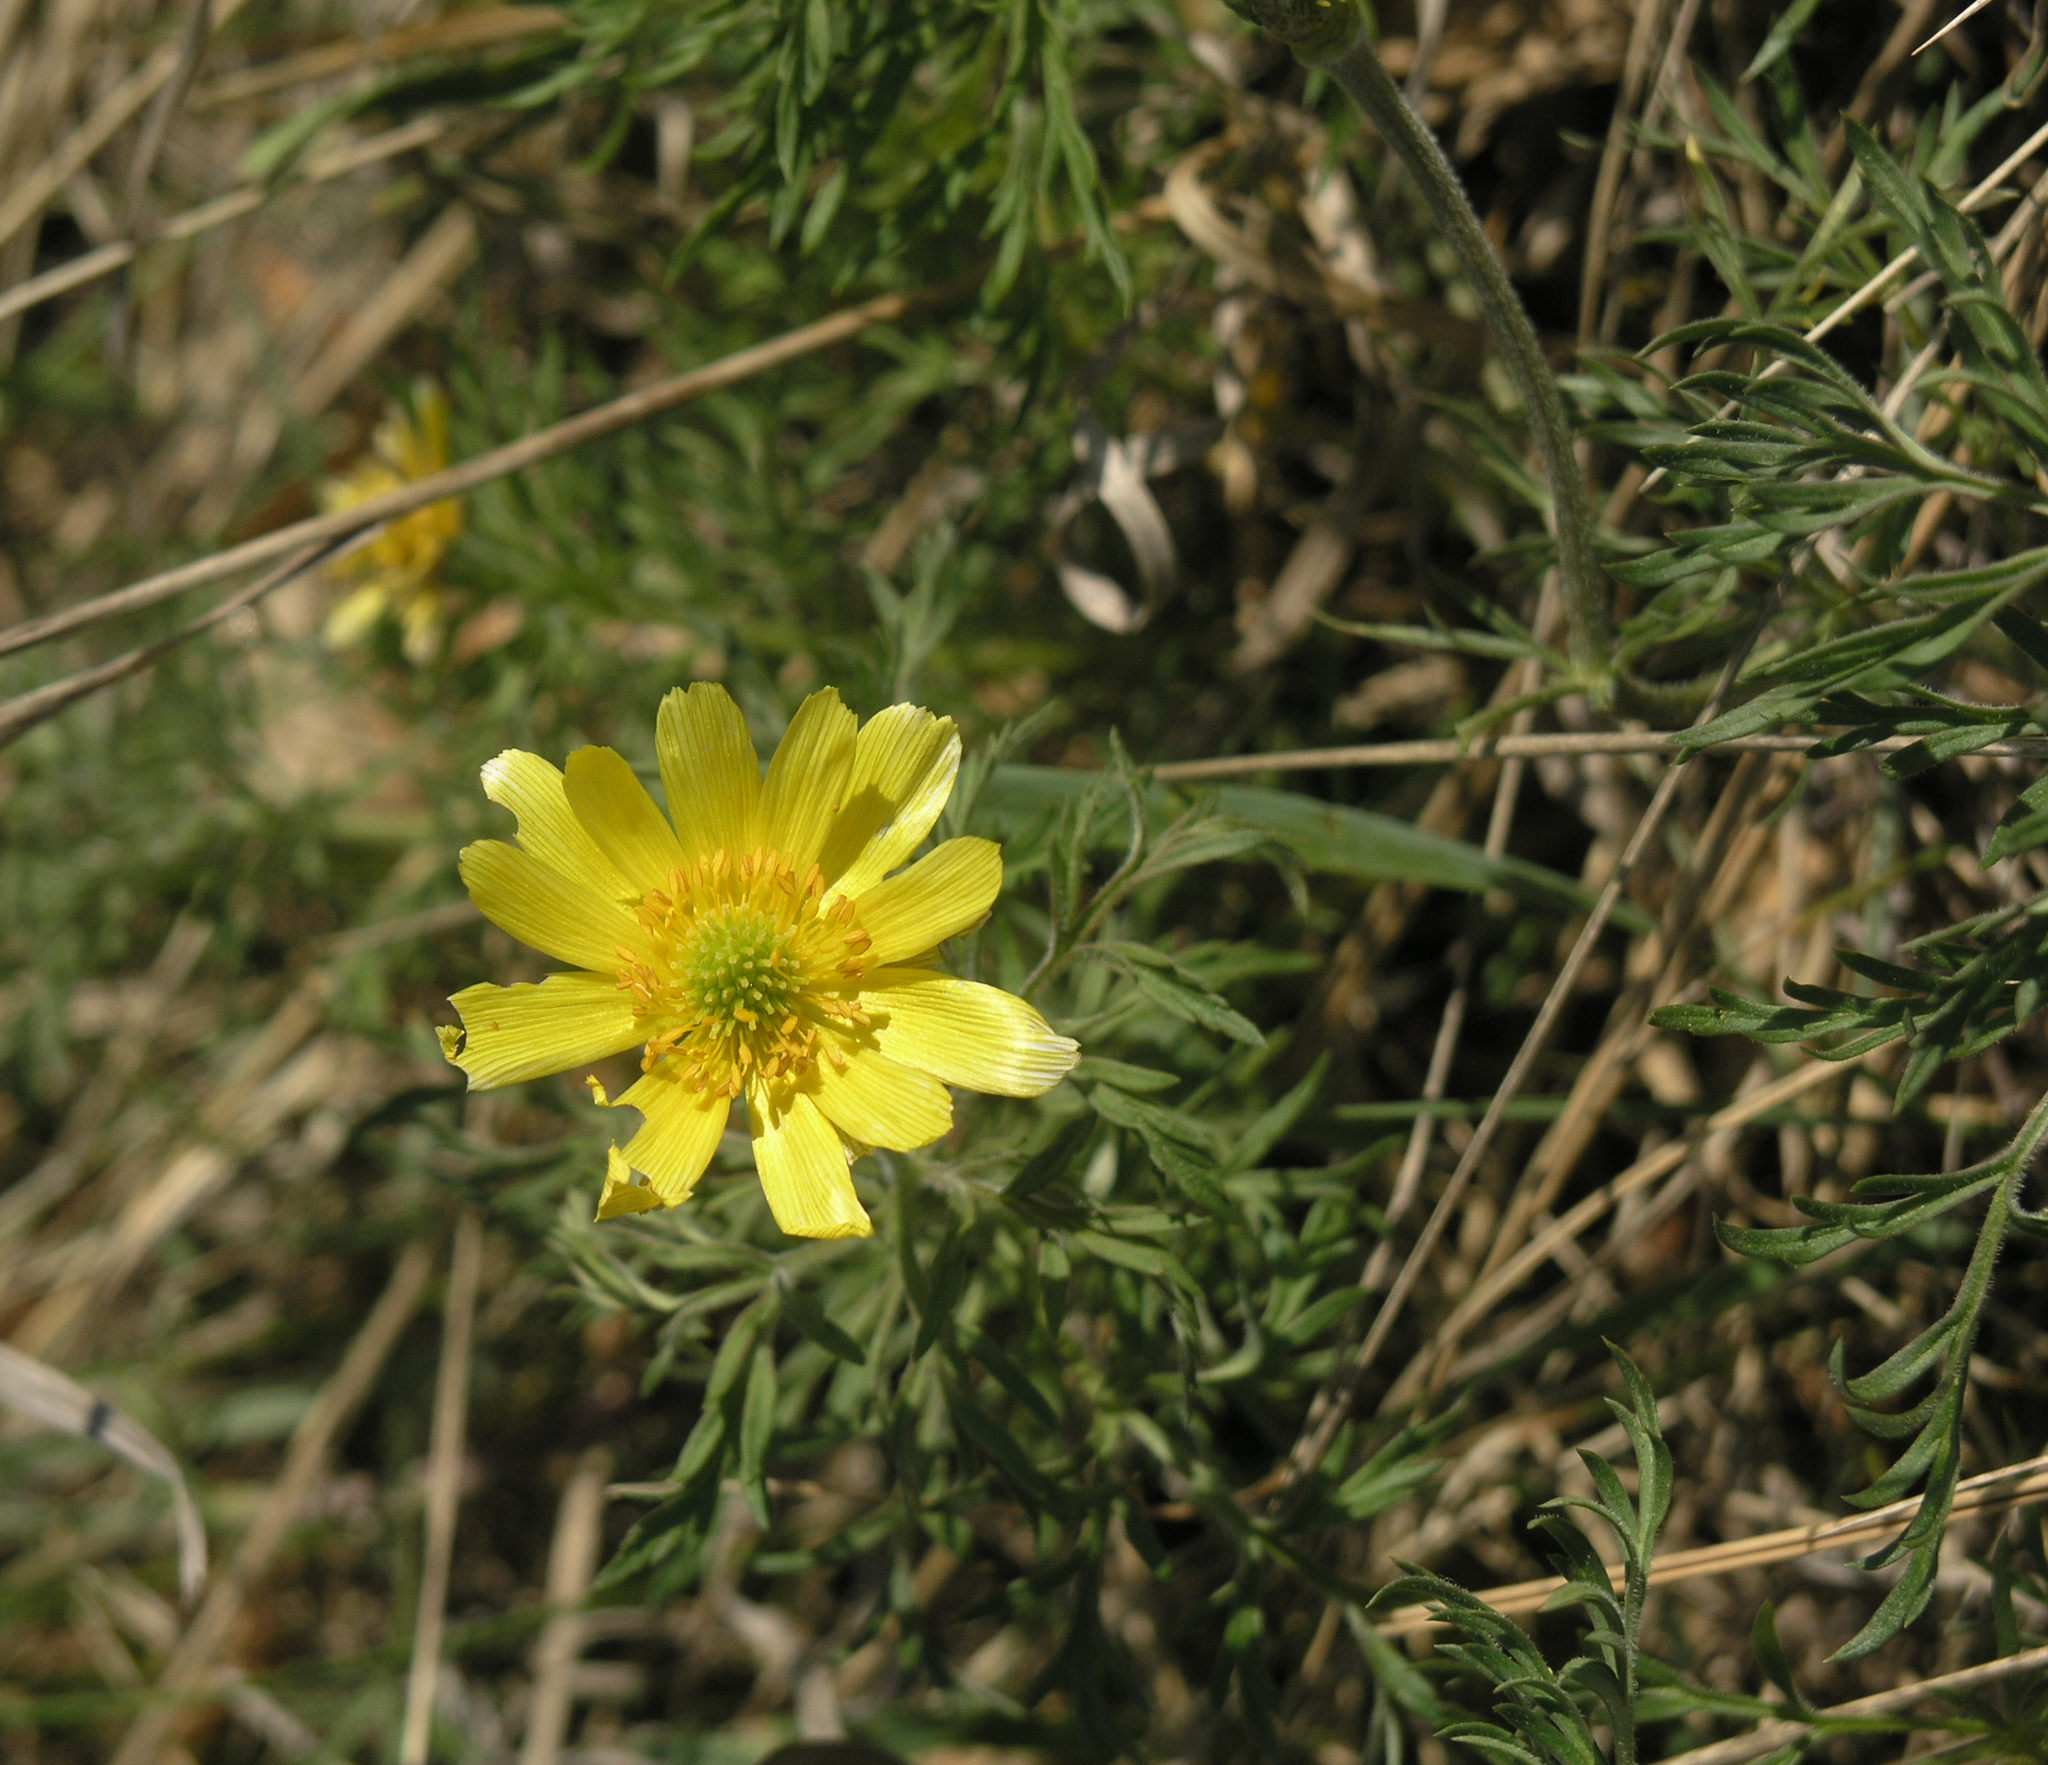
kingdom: Plantae
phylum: Tracheophyta
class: Magnoliopsida
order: Ranunculales
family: Ranunculaceae
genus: Adonis
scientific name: Adonis villosa
